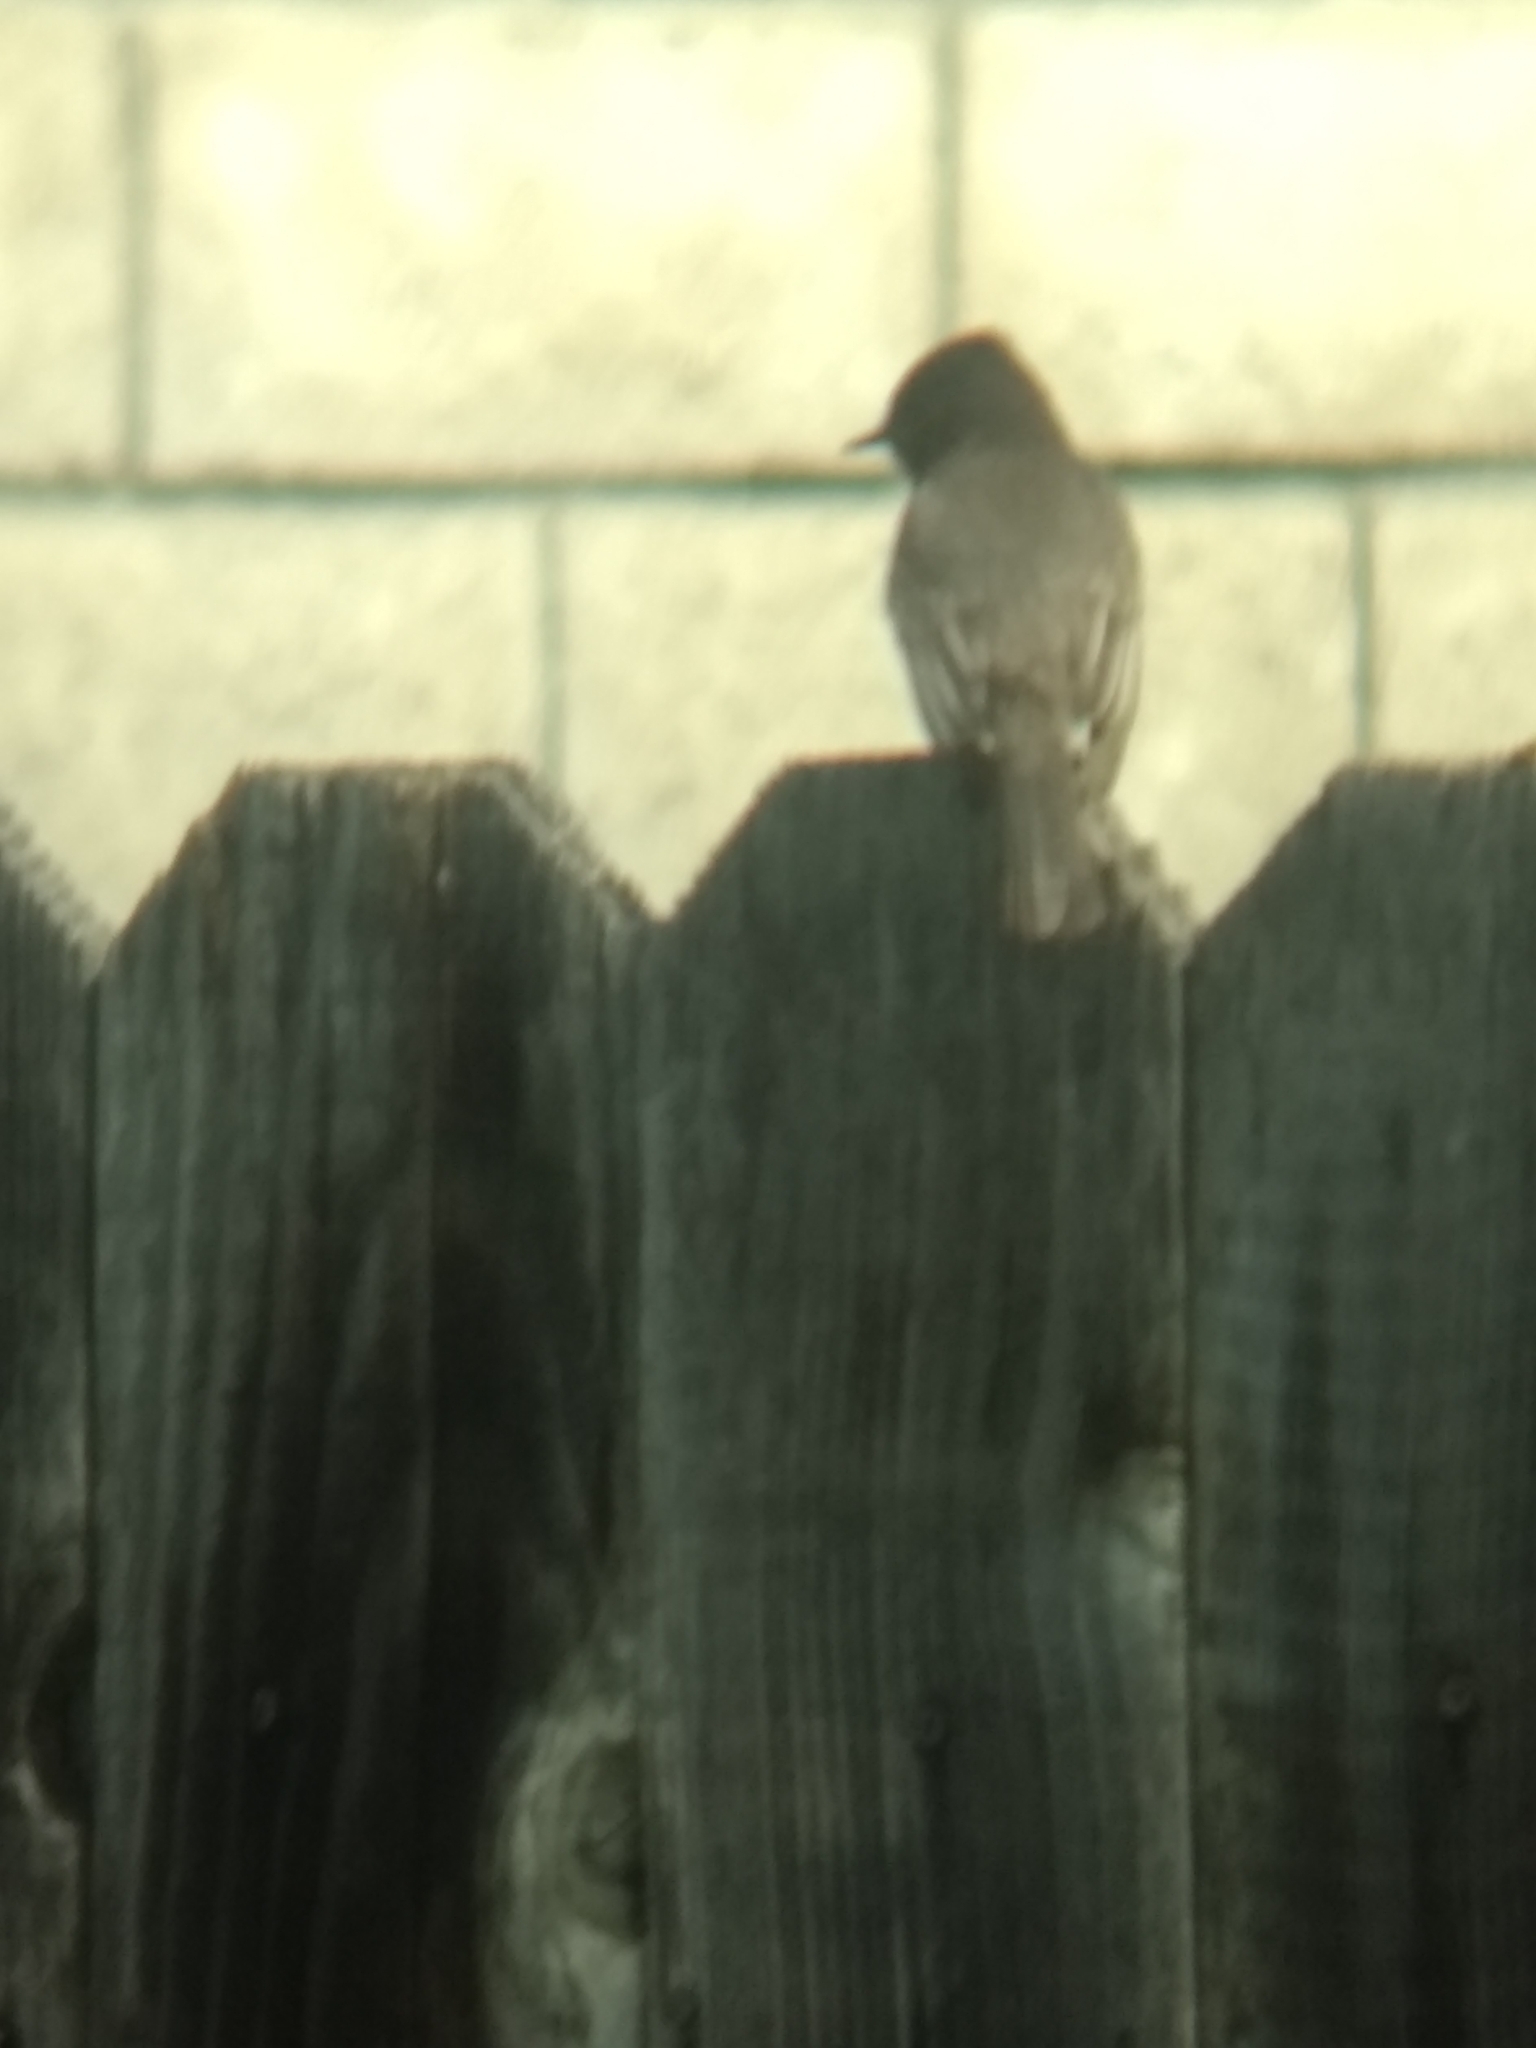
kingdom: Animalia
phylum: Chordata
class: Aves
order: Passeriformes
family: Tyrannidae
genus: Sayornis
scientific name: Sayornis nigricans
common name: Black phoebe
